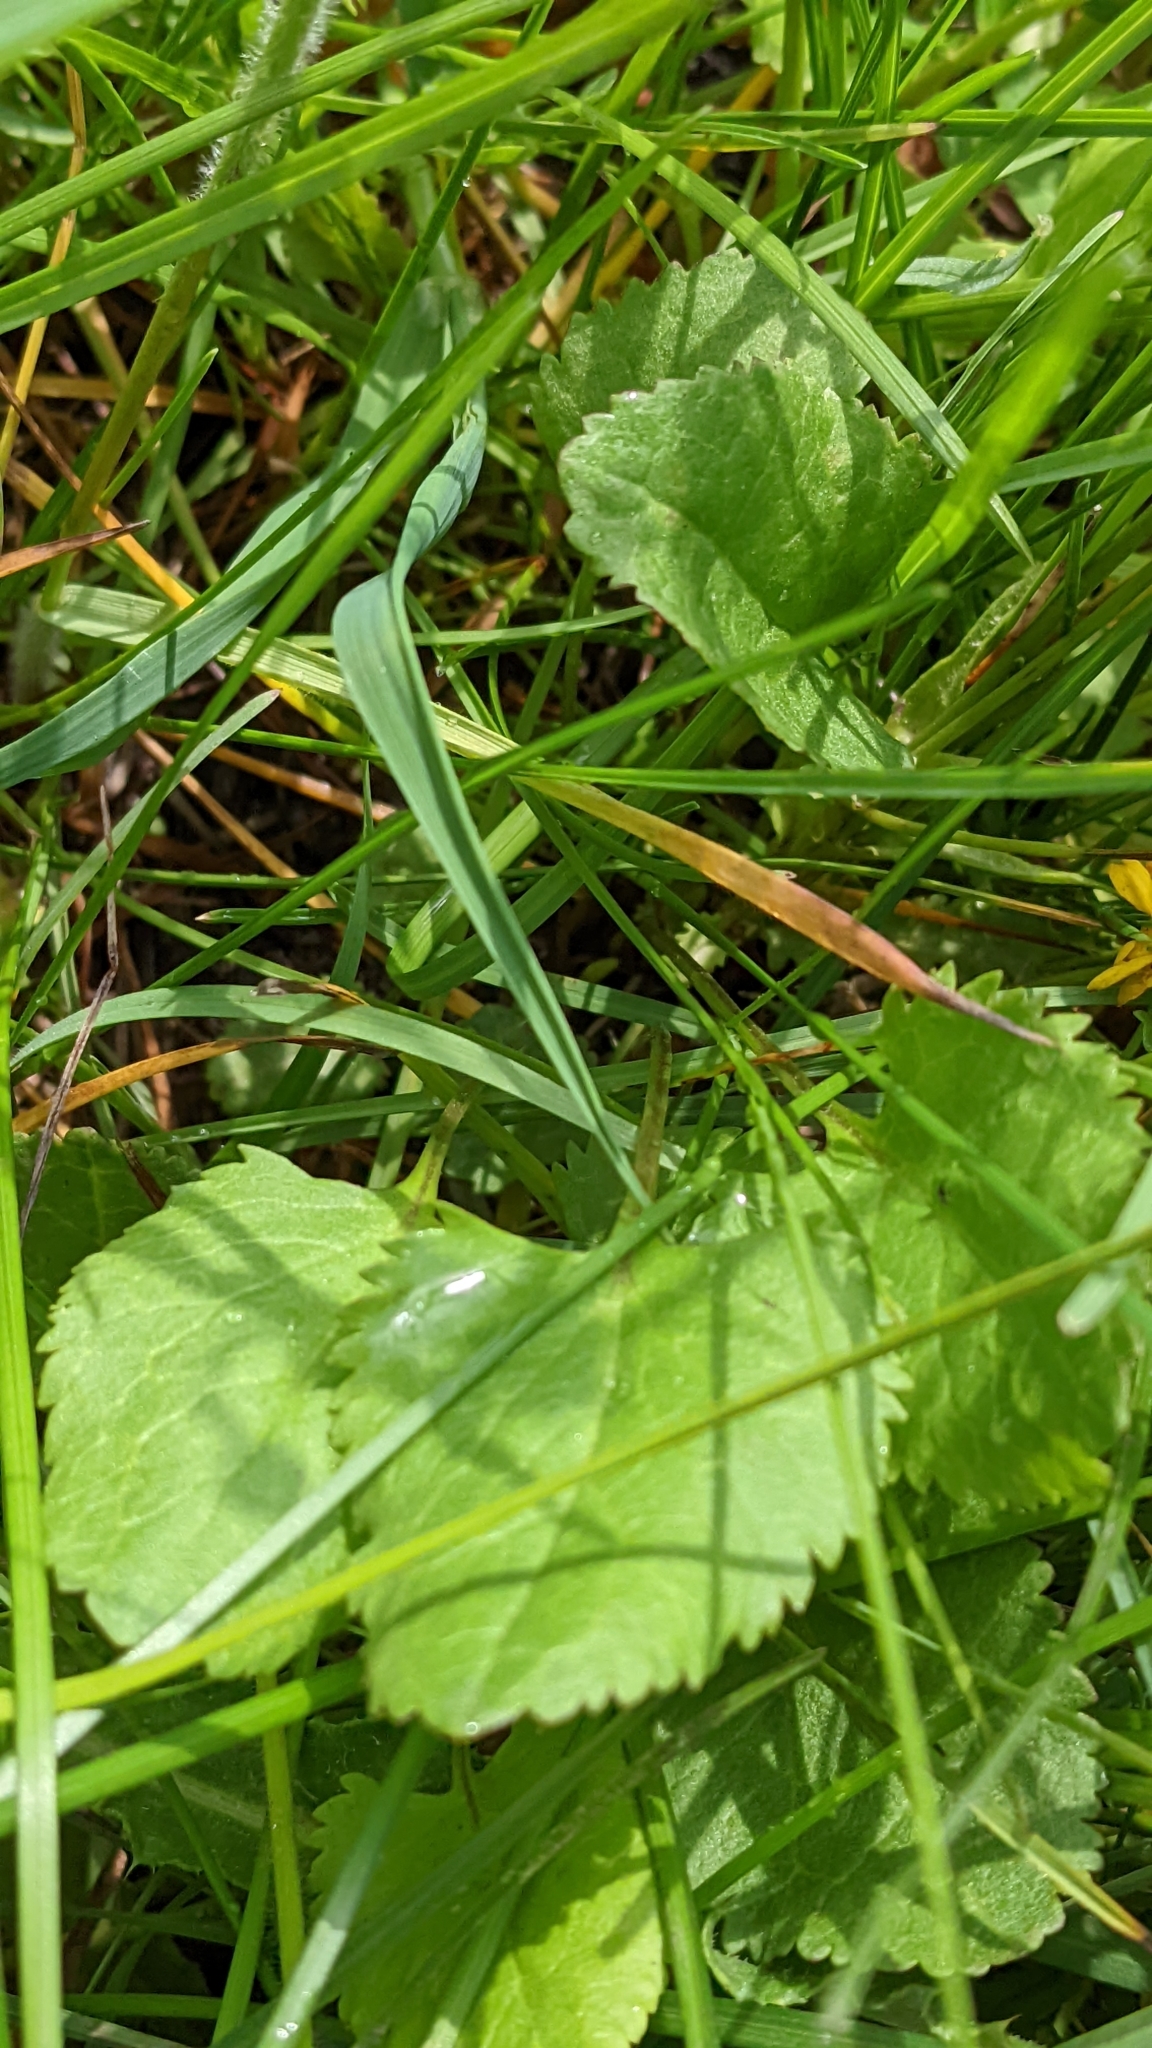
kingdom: Plantae
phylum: Tracheophyta
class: Magnoliopsida
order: Asterales
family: Asteraceae
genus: Packera
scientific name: Packera plattensis
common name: Prairie groundsel
